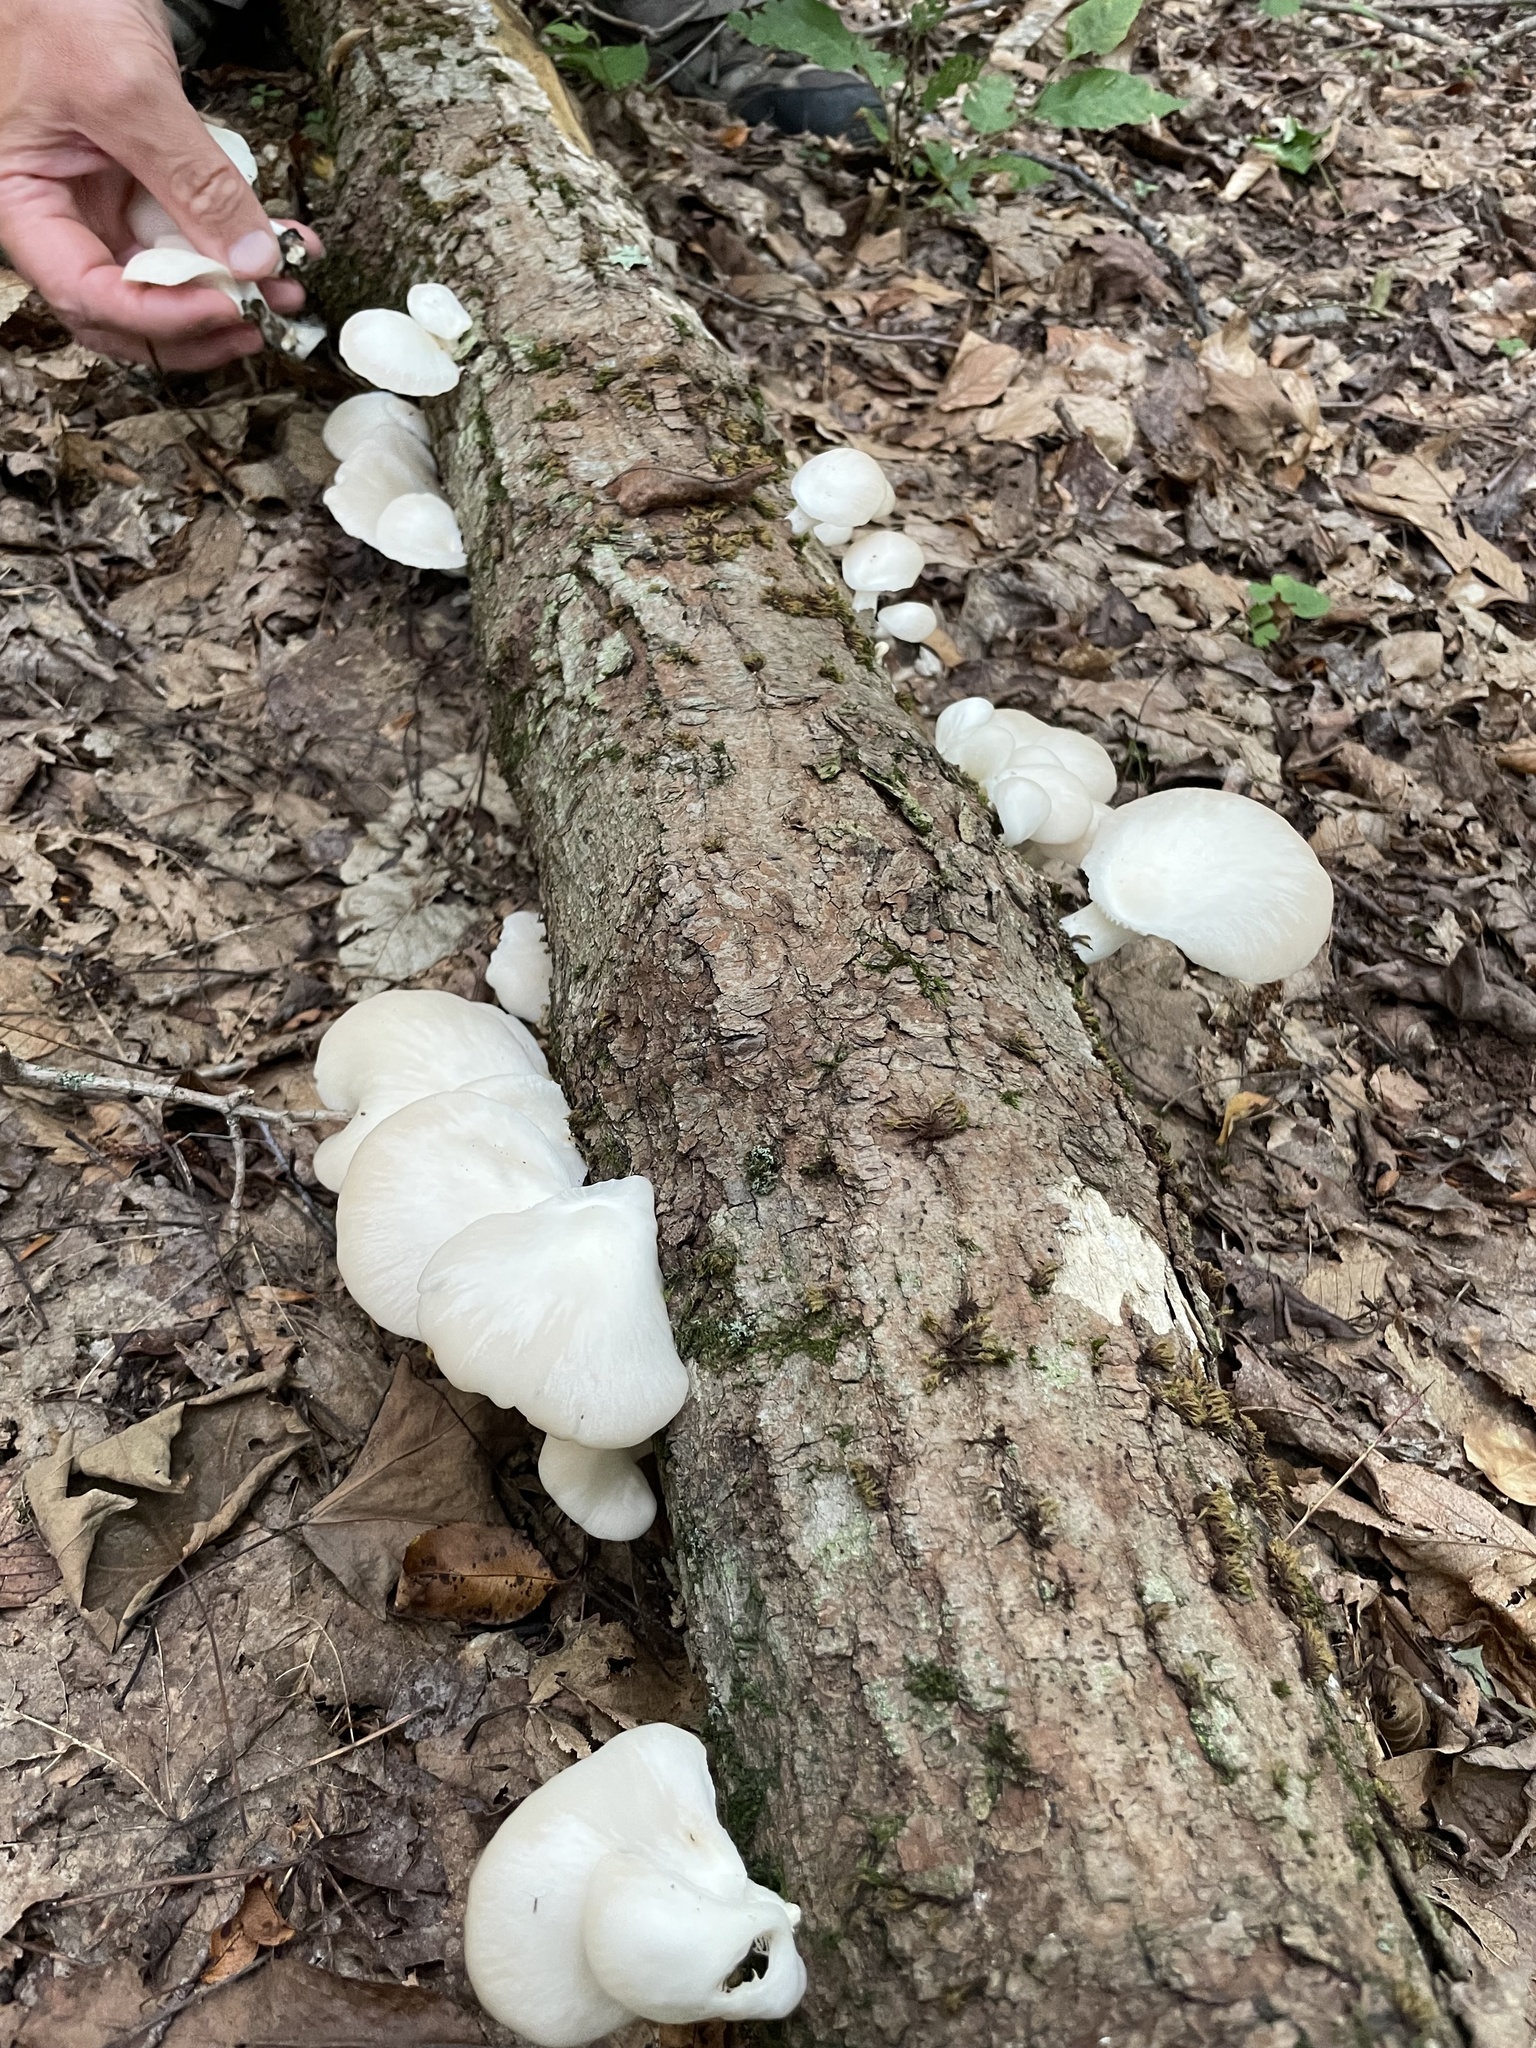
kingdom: Fungi
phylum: Basidiomycota
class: Agaricomycetes
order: Agaricales
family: Pleurotaceae
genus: Pleurotus
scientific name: Pleurotus pulmonarius
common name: Pale oyster
